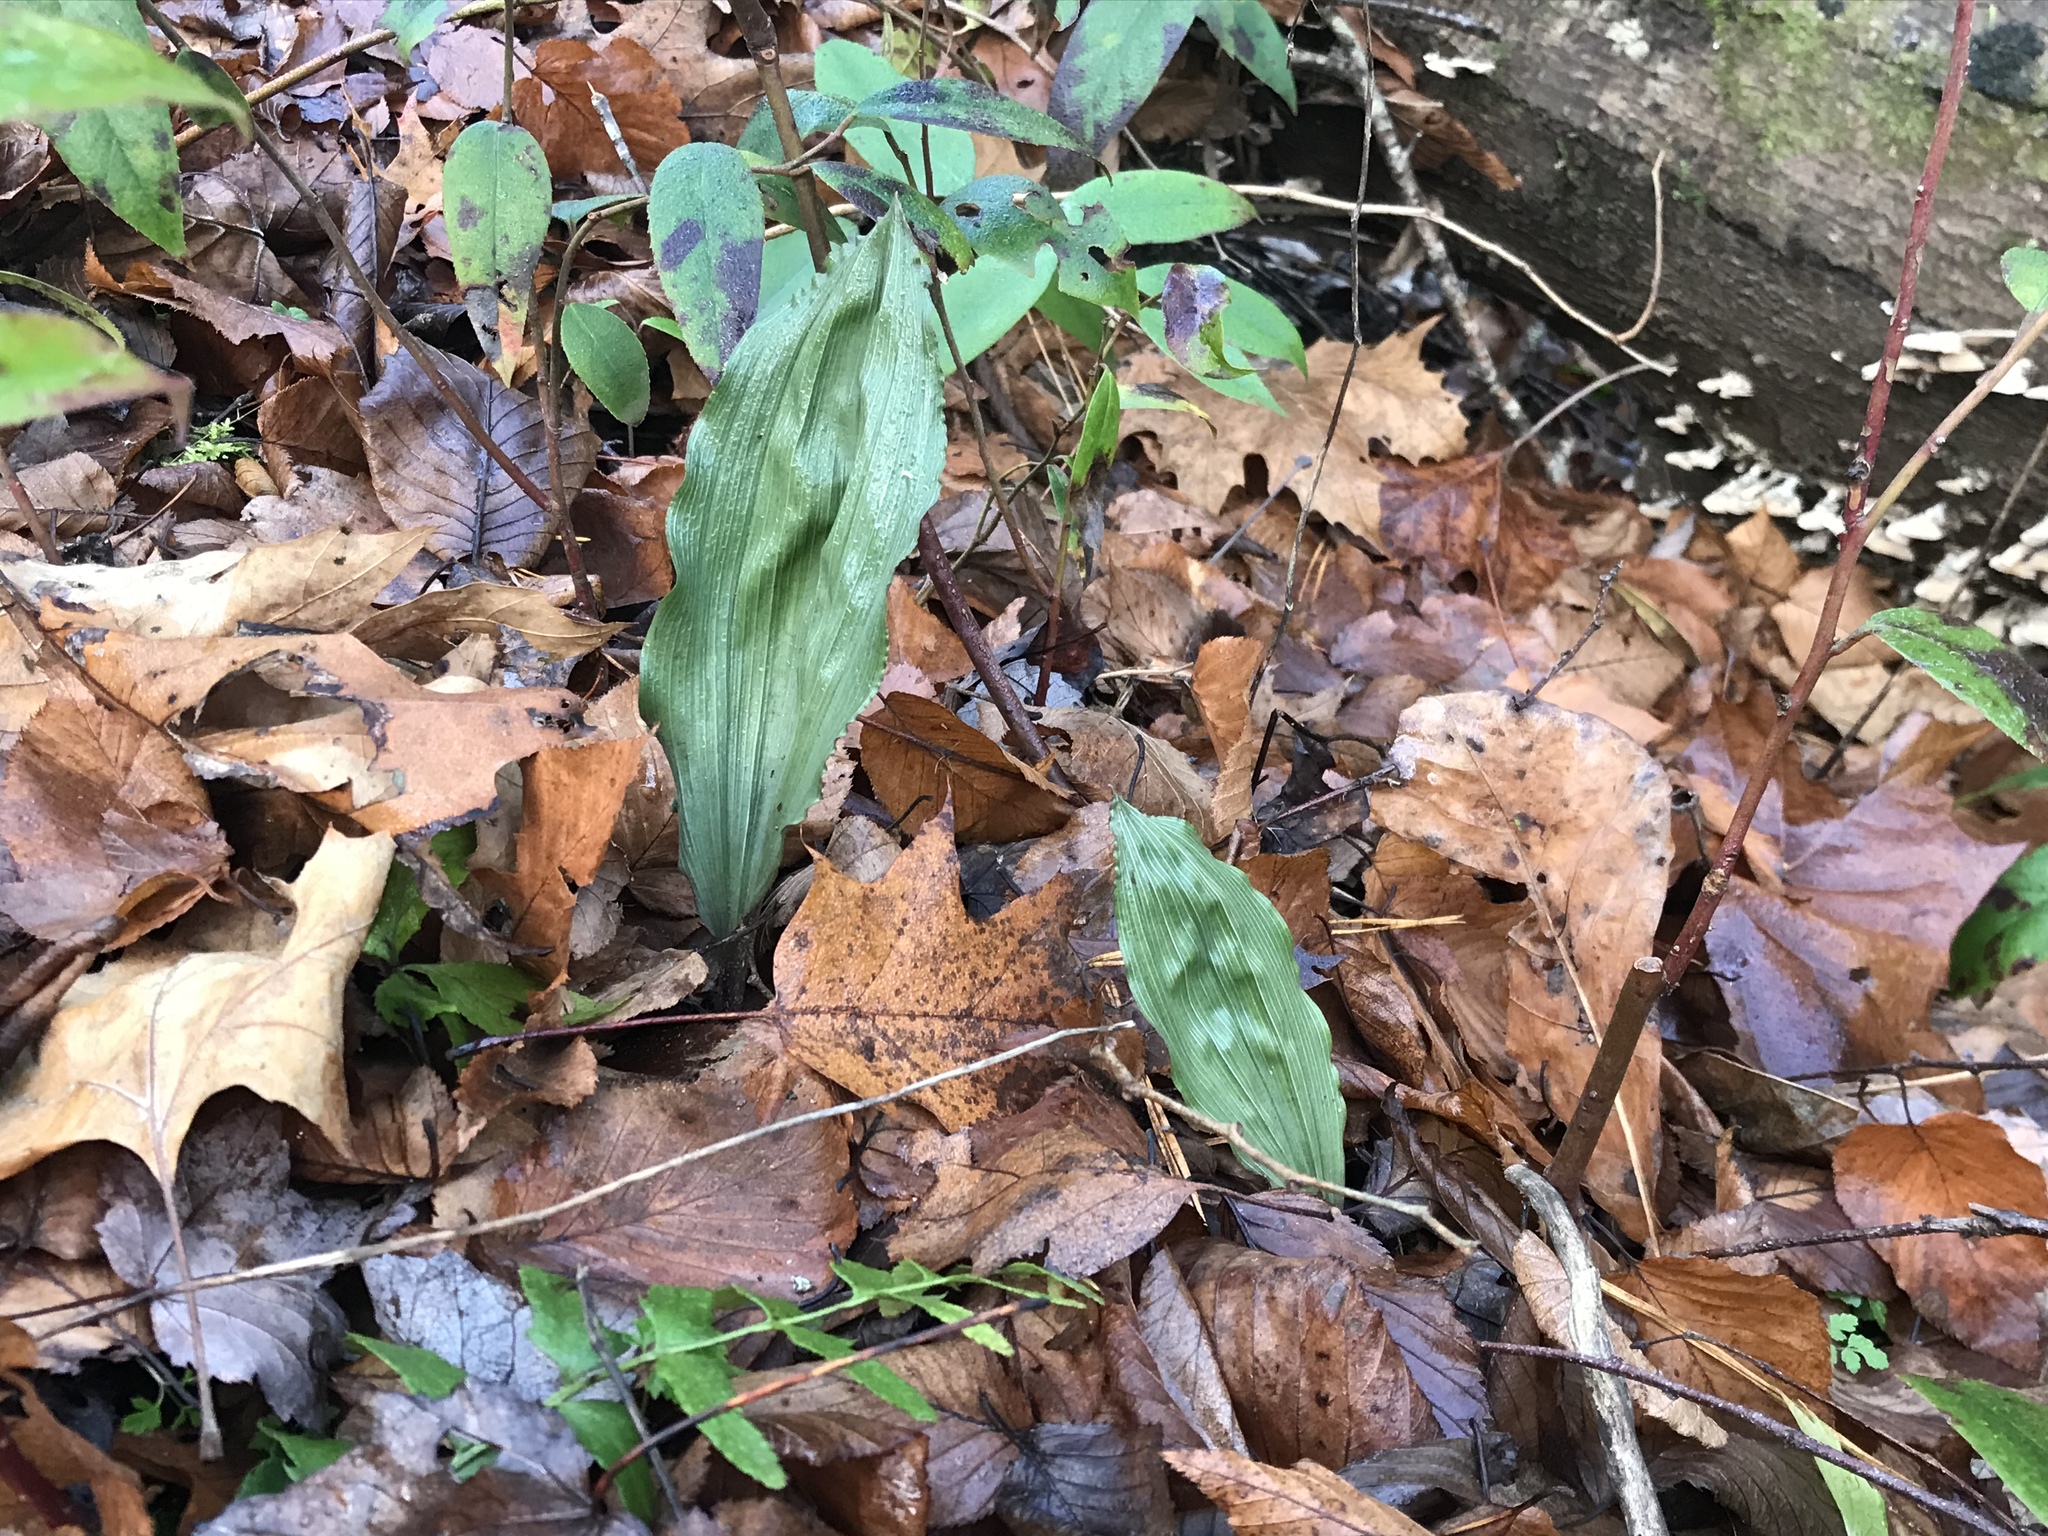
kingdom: Plantae
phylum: Tracheophyta
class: Liliopsida
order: Asparagales
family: Orchidaceae
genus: Aplectrum
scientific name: Aplectrum hyemale
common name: Adam-and-eve
